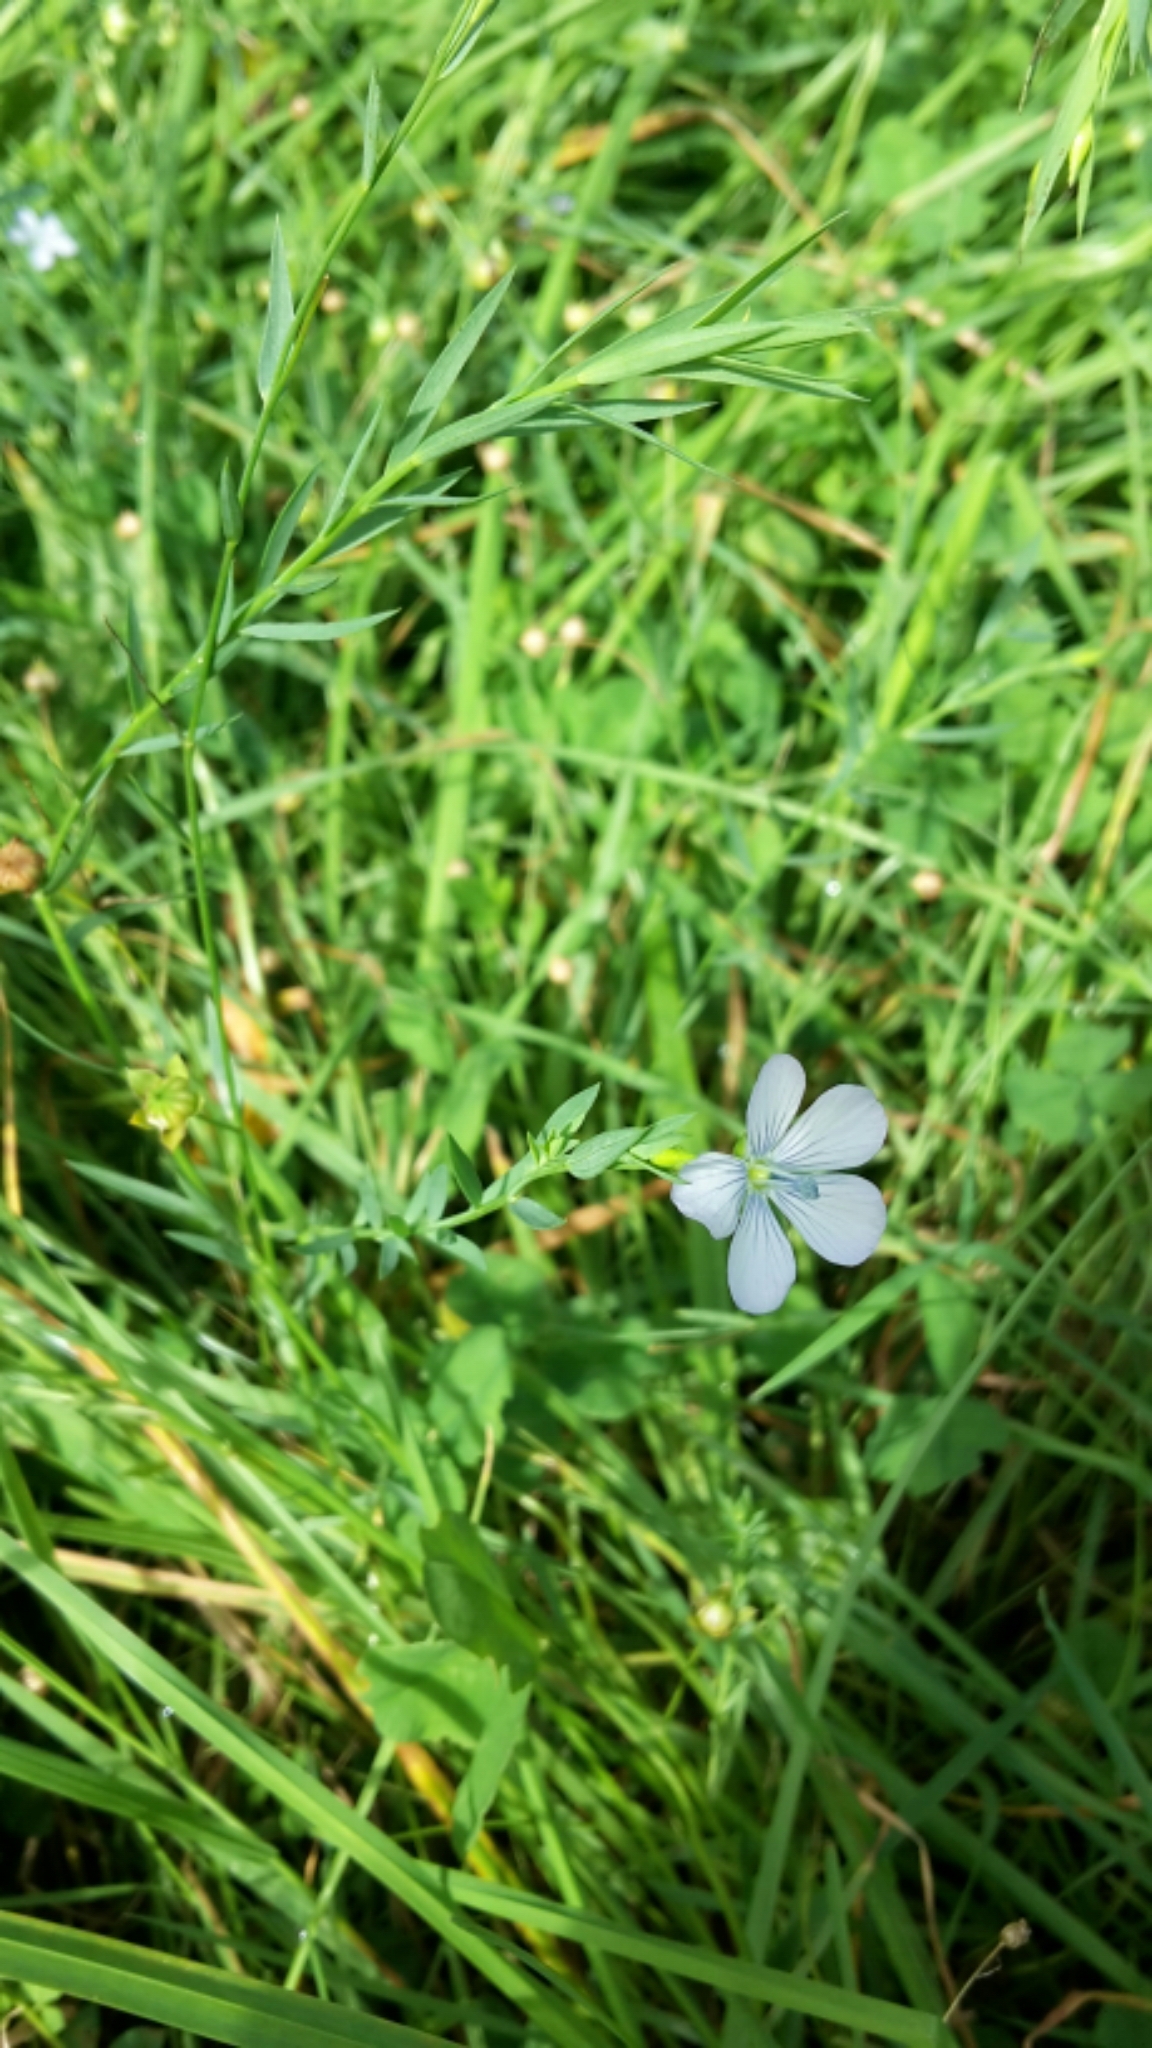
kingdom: Plantae
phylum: Tracheophyta
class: Magnoliopsida
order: Malpighiales
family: Linaceae
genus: Linum
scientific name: Linum bienne
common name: Pale flax
